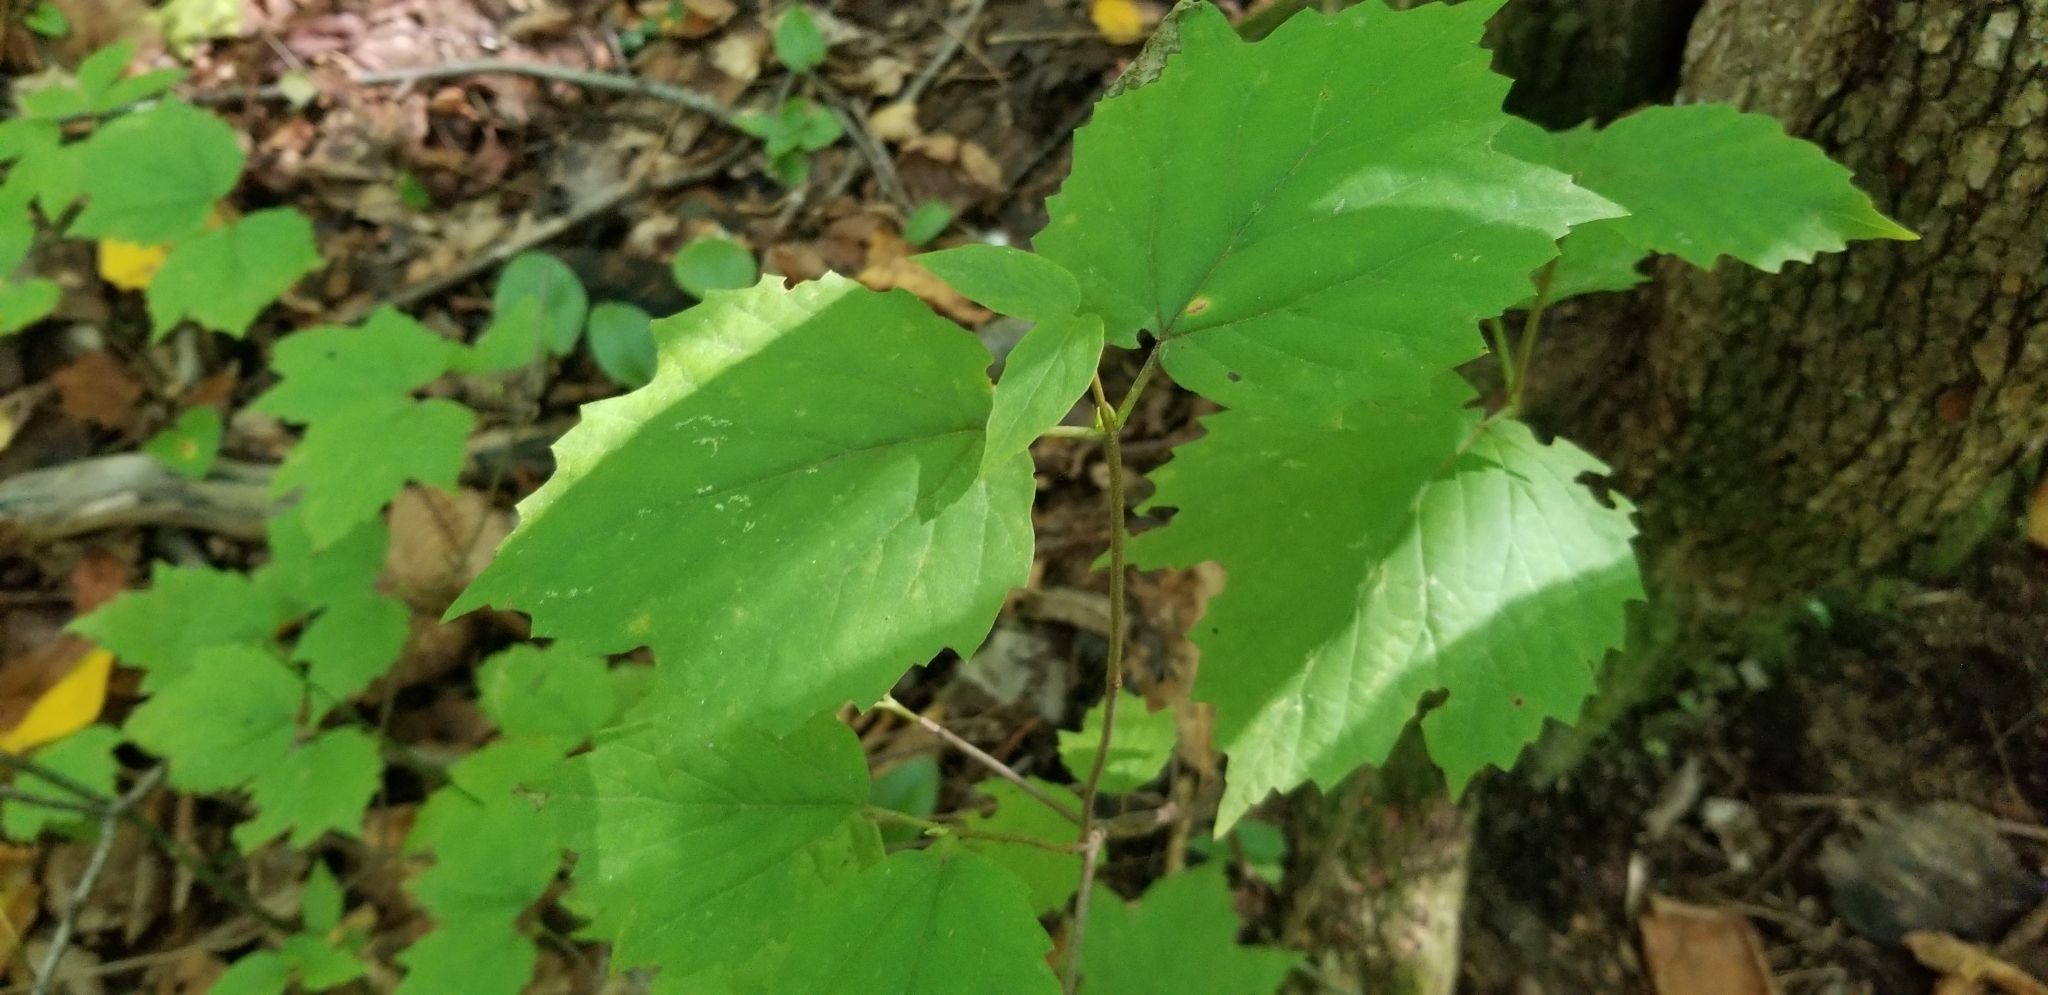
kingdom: Plantae
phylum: Tracheophyta
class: Magnoliopsida
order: Dipsacales
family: Viburnaceae
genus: Viburnum
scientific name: Viburnum acerifolium
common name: Dockmackie
